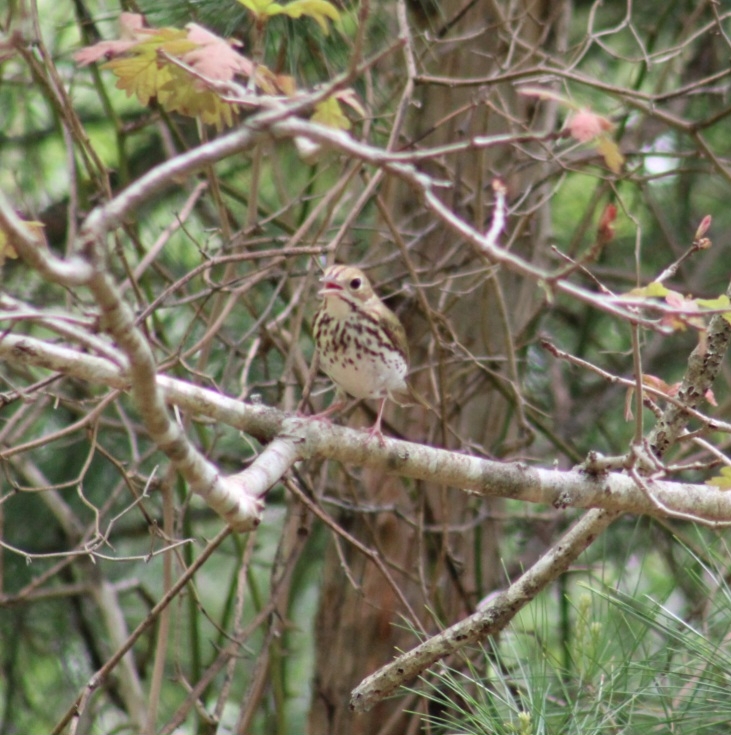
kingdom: Animalia
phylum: Chordata
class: Aves
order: Passeriformes
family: Parulidae
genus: Seiurus
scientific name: Seiurus aurocapilla
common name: Ovenbird
